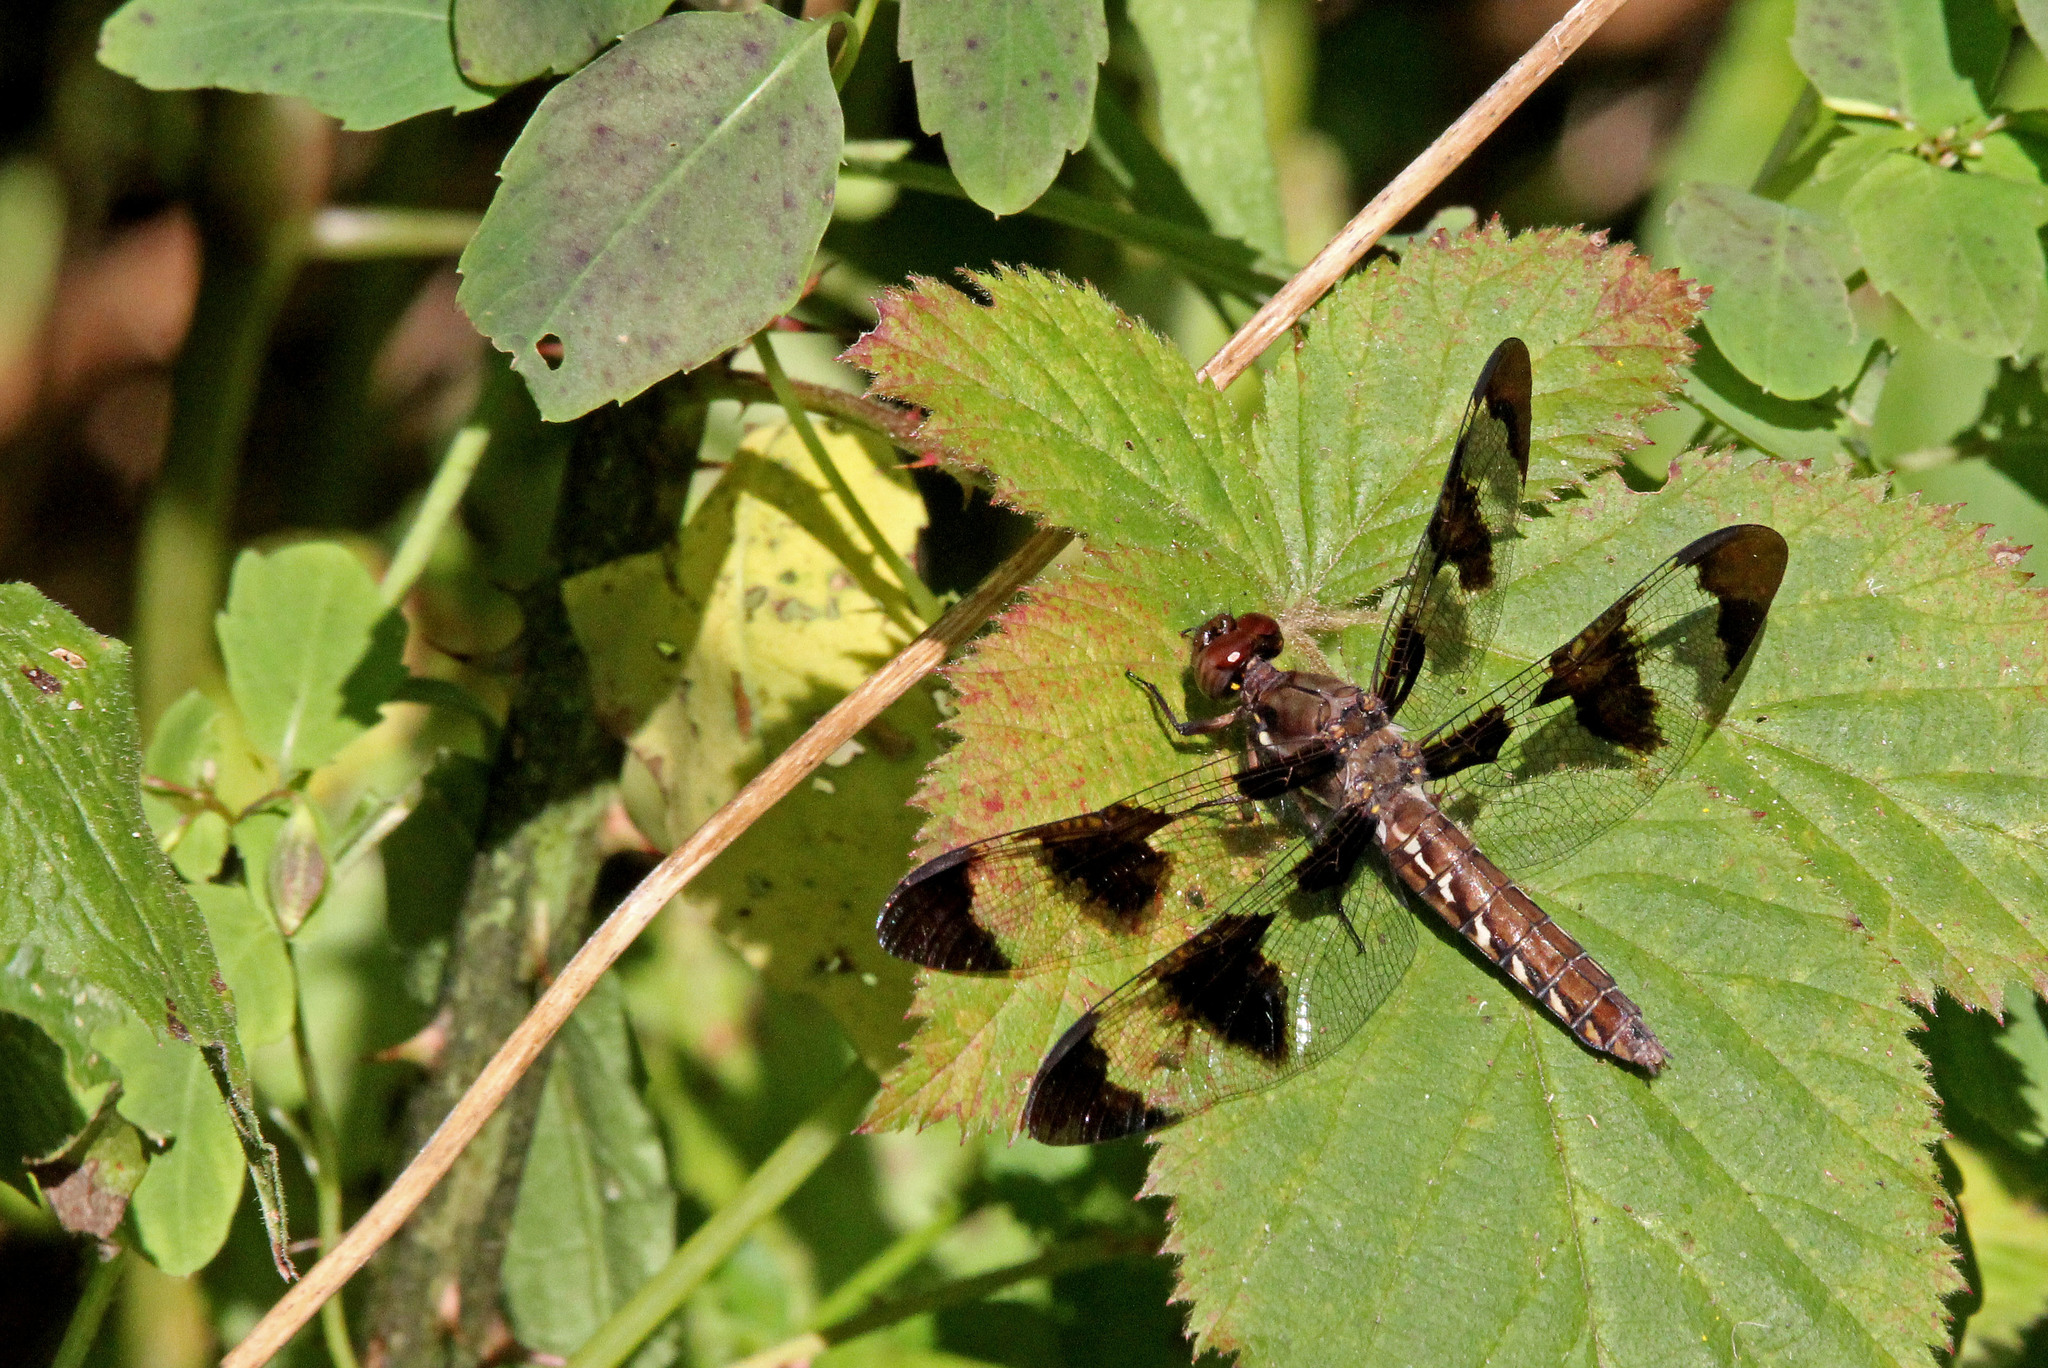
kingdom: Animalia
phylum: Arthropoda
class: Insecta
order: Odonata
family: Libellulidae
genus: Plathemis
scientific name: Plathemis lydia
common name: Common whitetail
